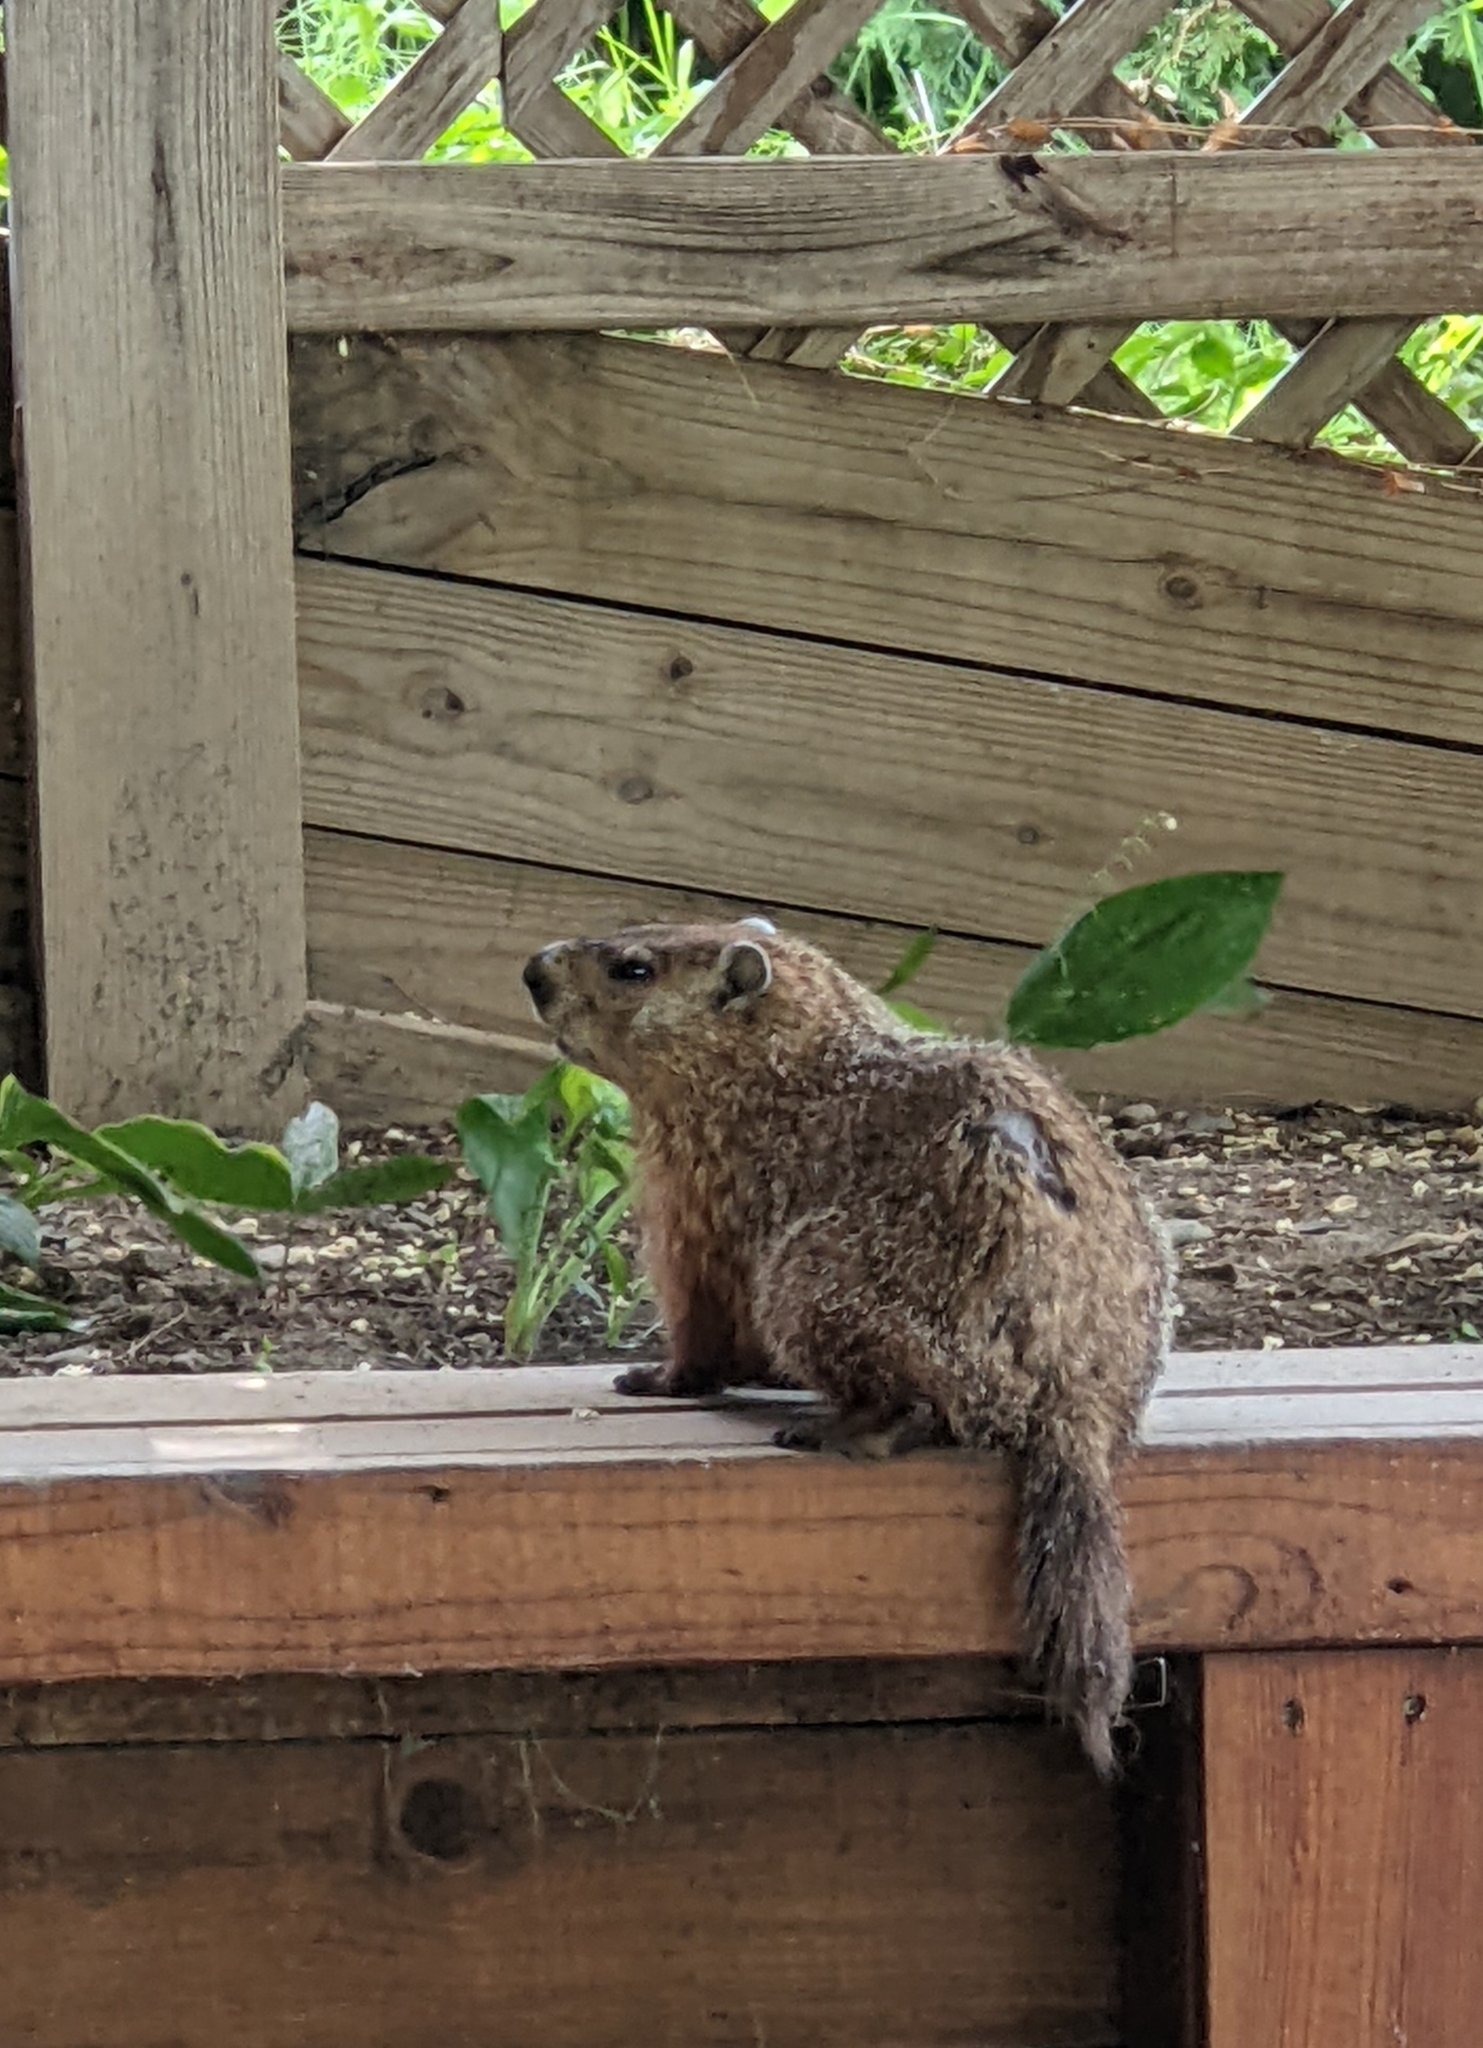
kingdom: Animalia
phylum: Chordata
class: Mammalia
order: Rodentia
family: Sciuridae
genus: Marmota
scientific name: Marmota monax
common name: Groundhog
